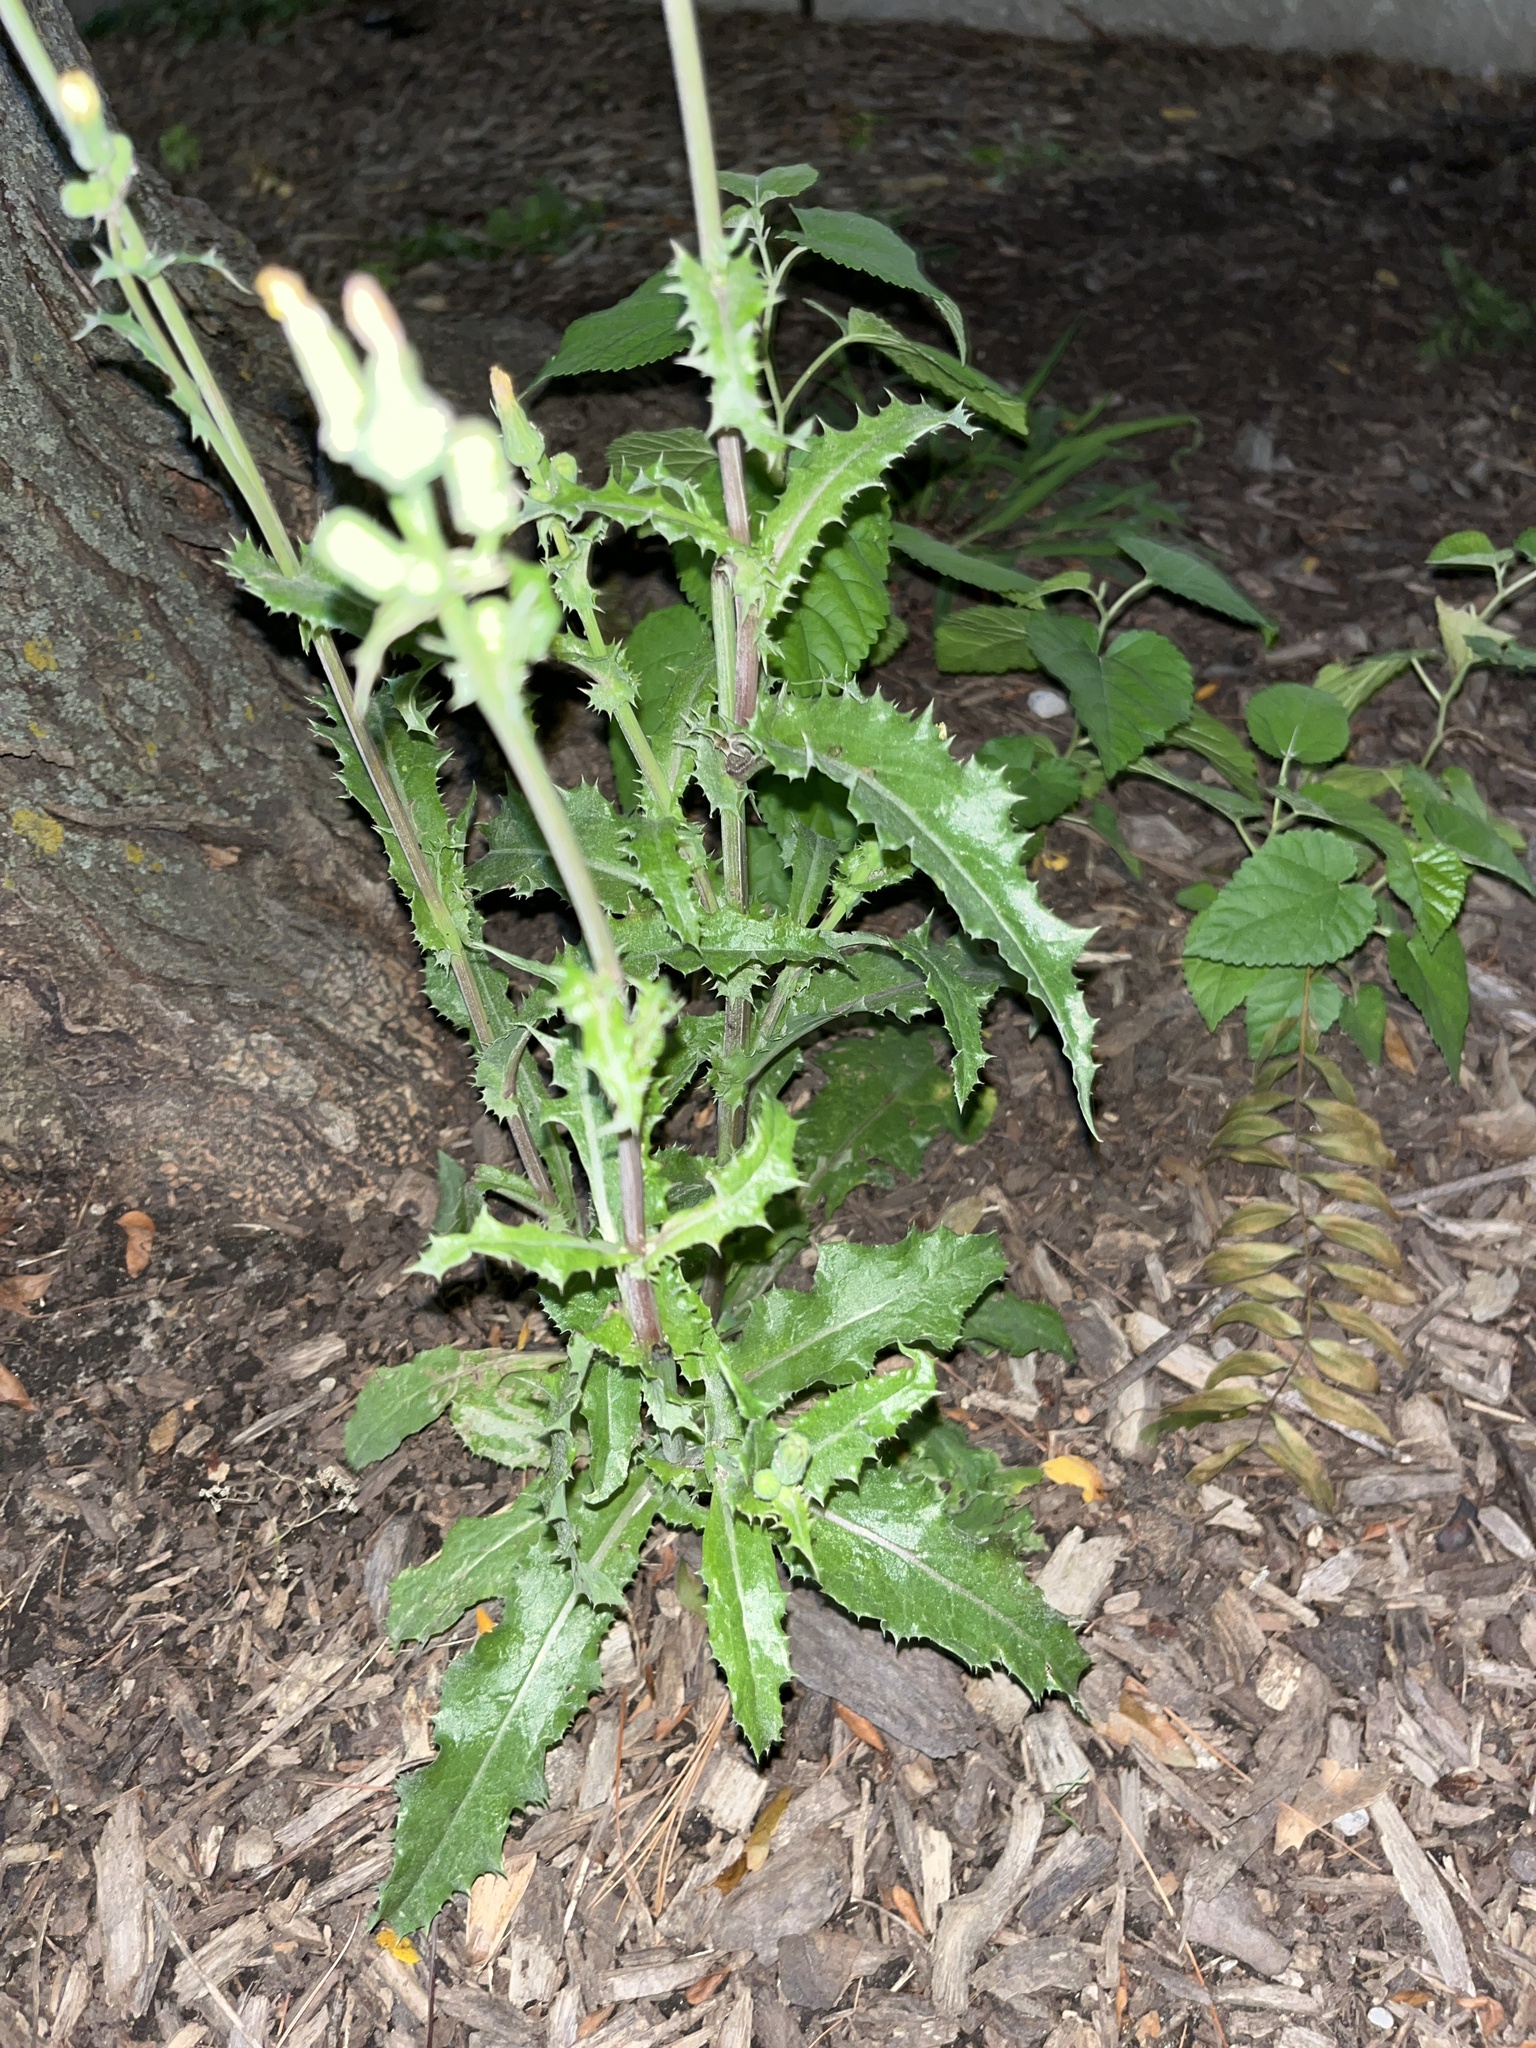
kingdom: Plantae
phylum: Tracheophyta
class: Magnoliopsida
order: Asterales
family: Asteraceae
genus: Sonchus
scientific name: Sonchus asper
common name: Prickly sow-thistle
